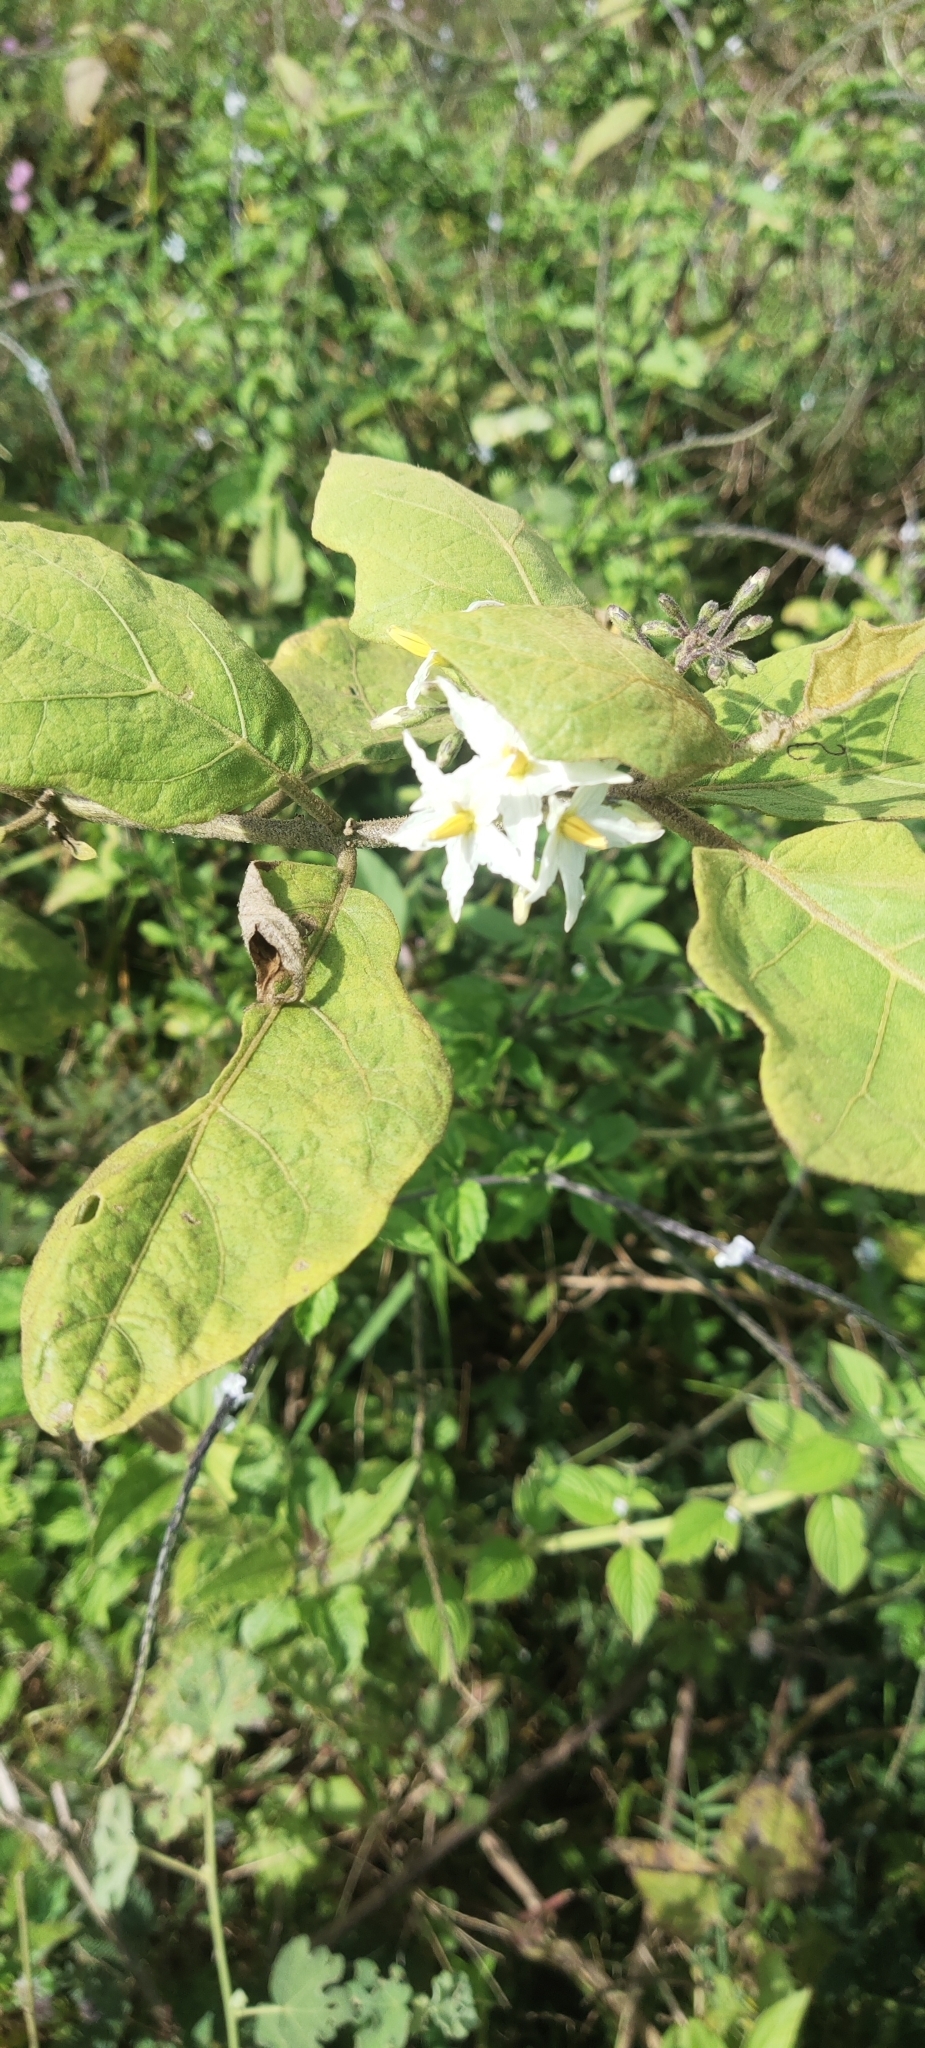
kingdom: Plantae
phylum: Tracheophyta
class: Magnoliopsida
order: Solanales
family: Solanaceae
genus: Solanum
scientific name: Solanum torvum
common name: Turkey berry
